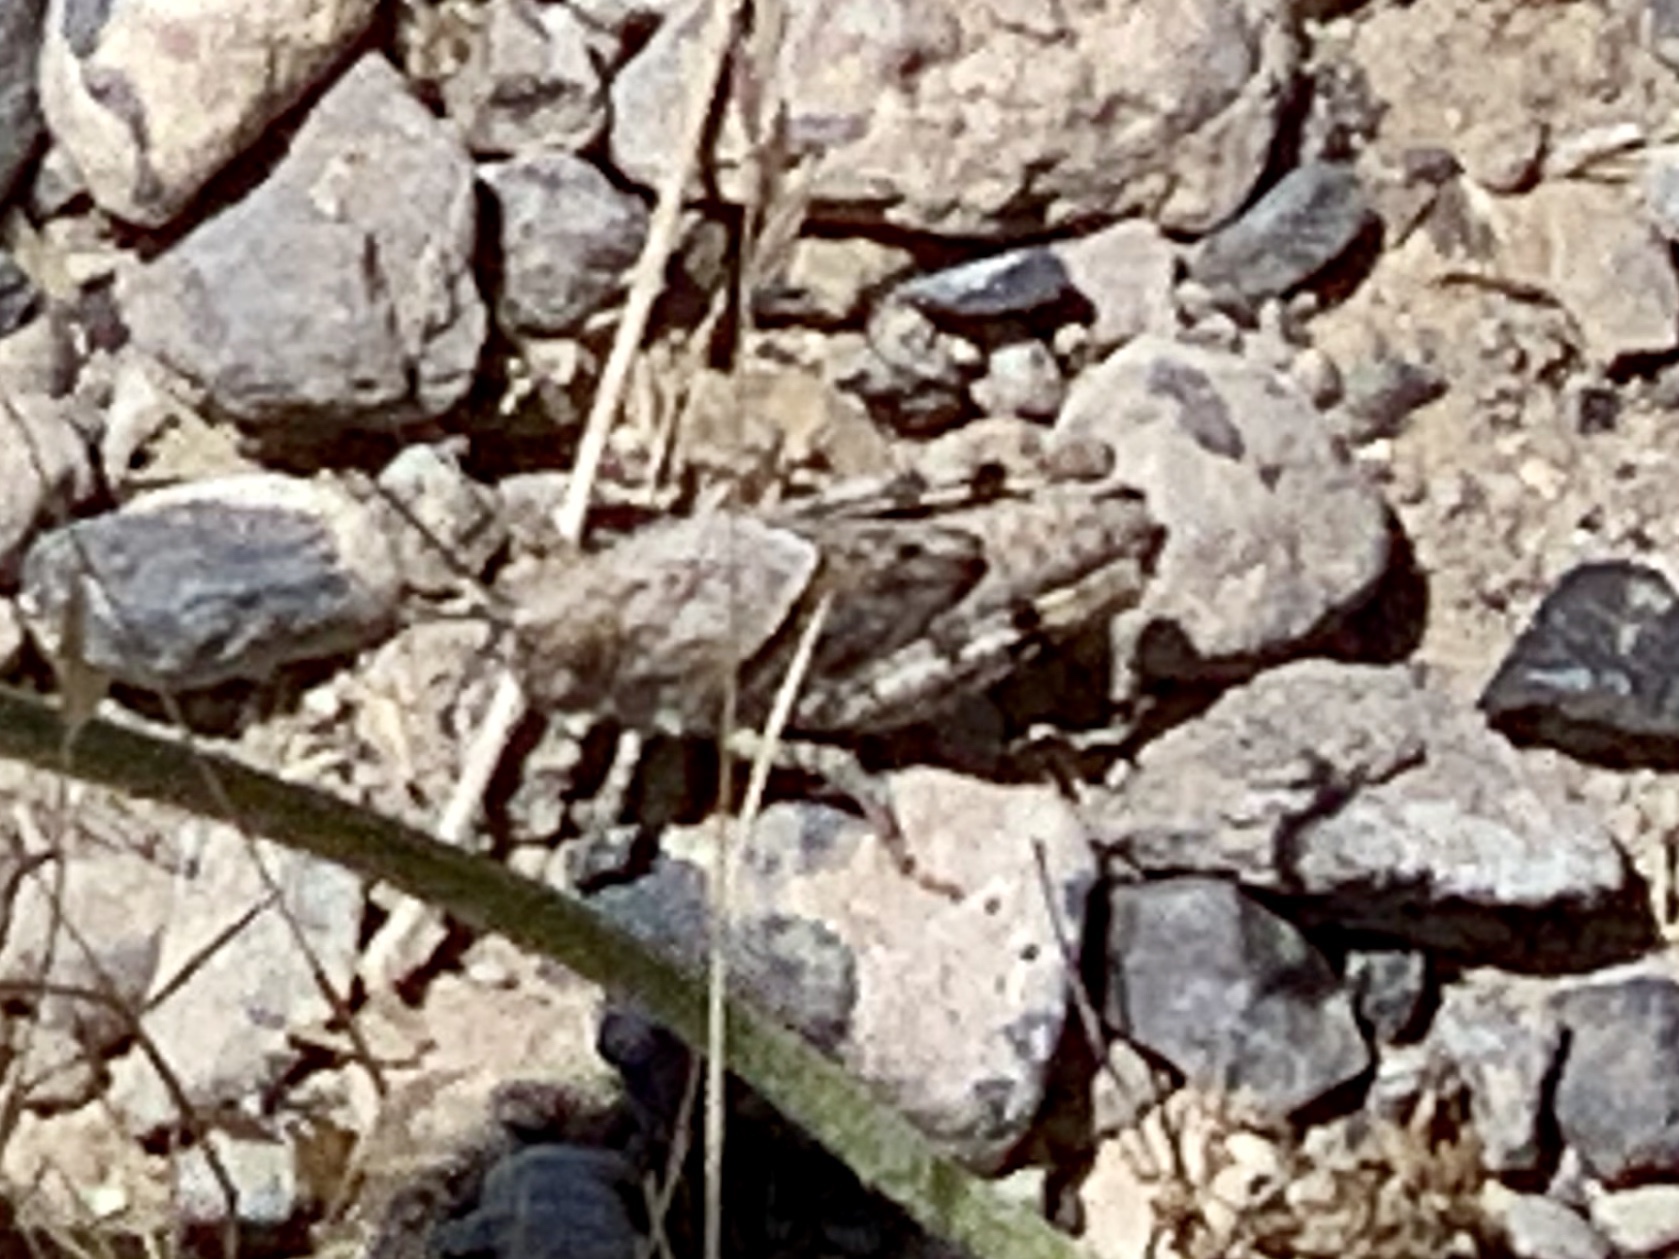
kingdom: Animalia
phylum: Arthropoda
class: Insecta
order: Orthoptera
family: Acrididae
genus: Trimerotropis
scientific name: Trimerotropis pallidipennis
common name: Pallid-winged grasshopper
